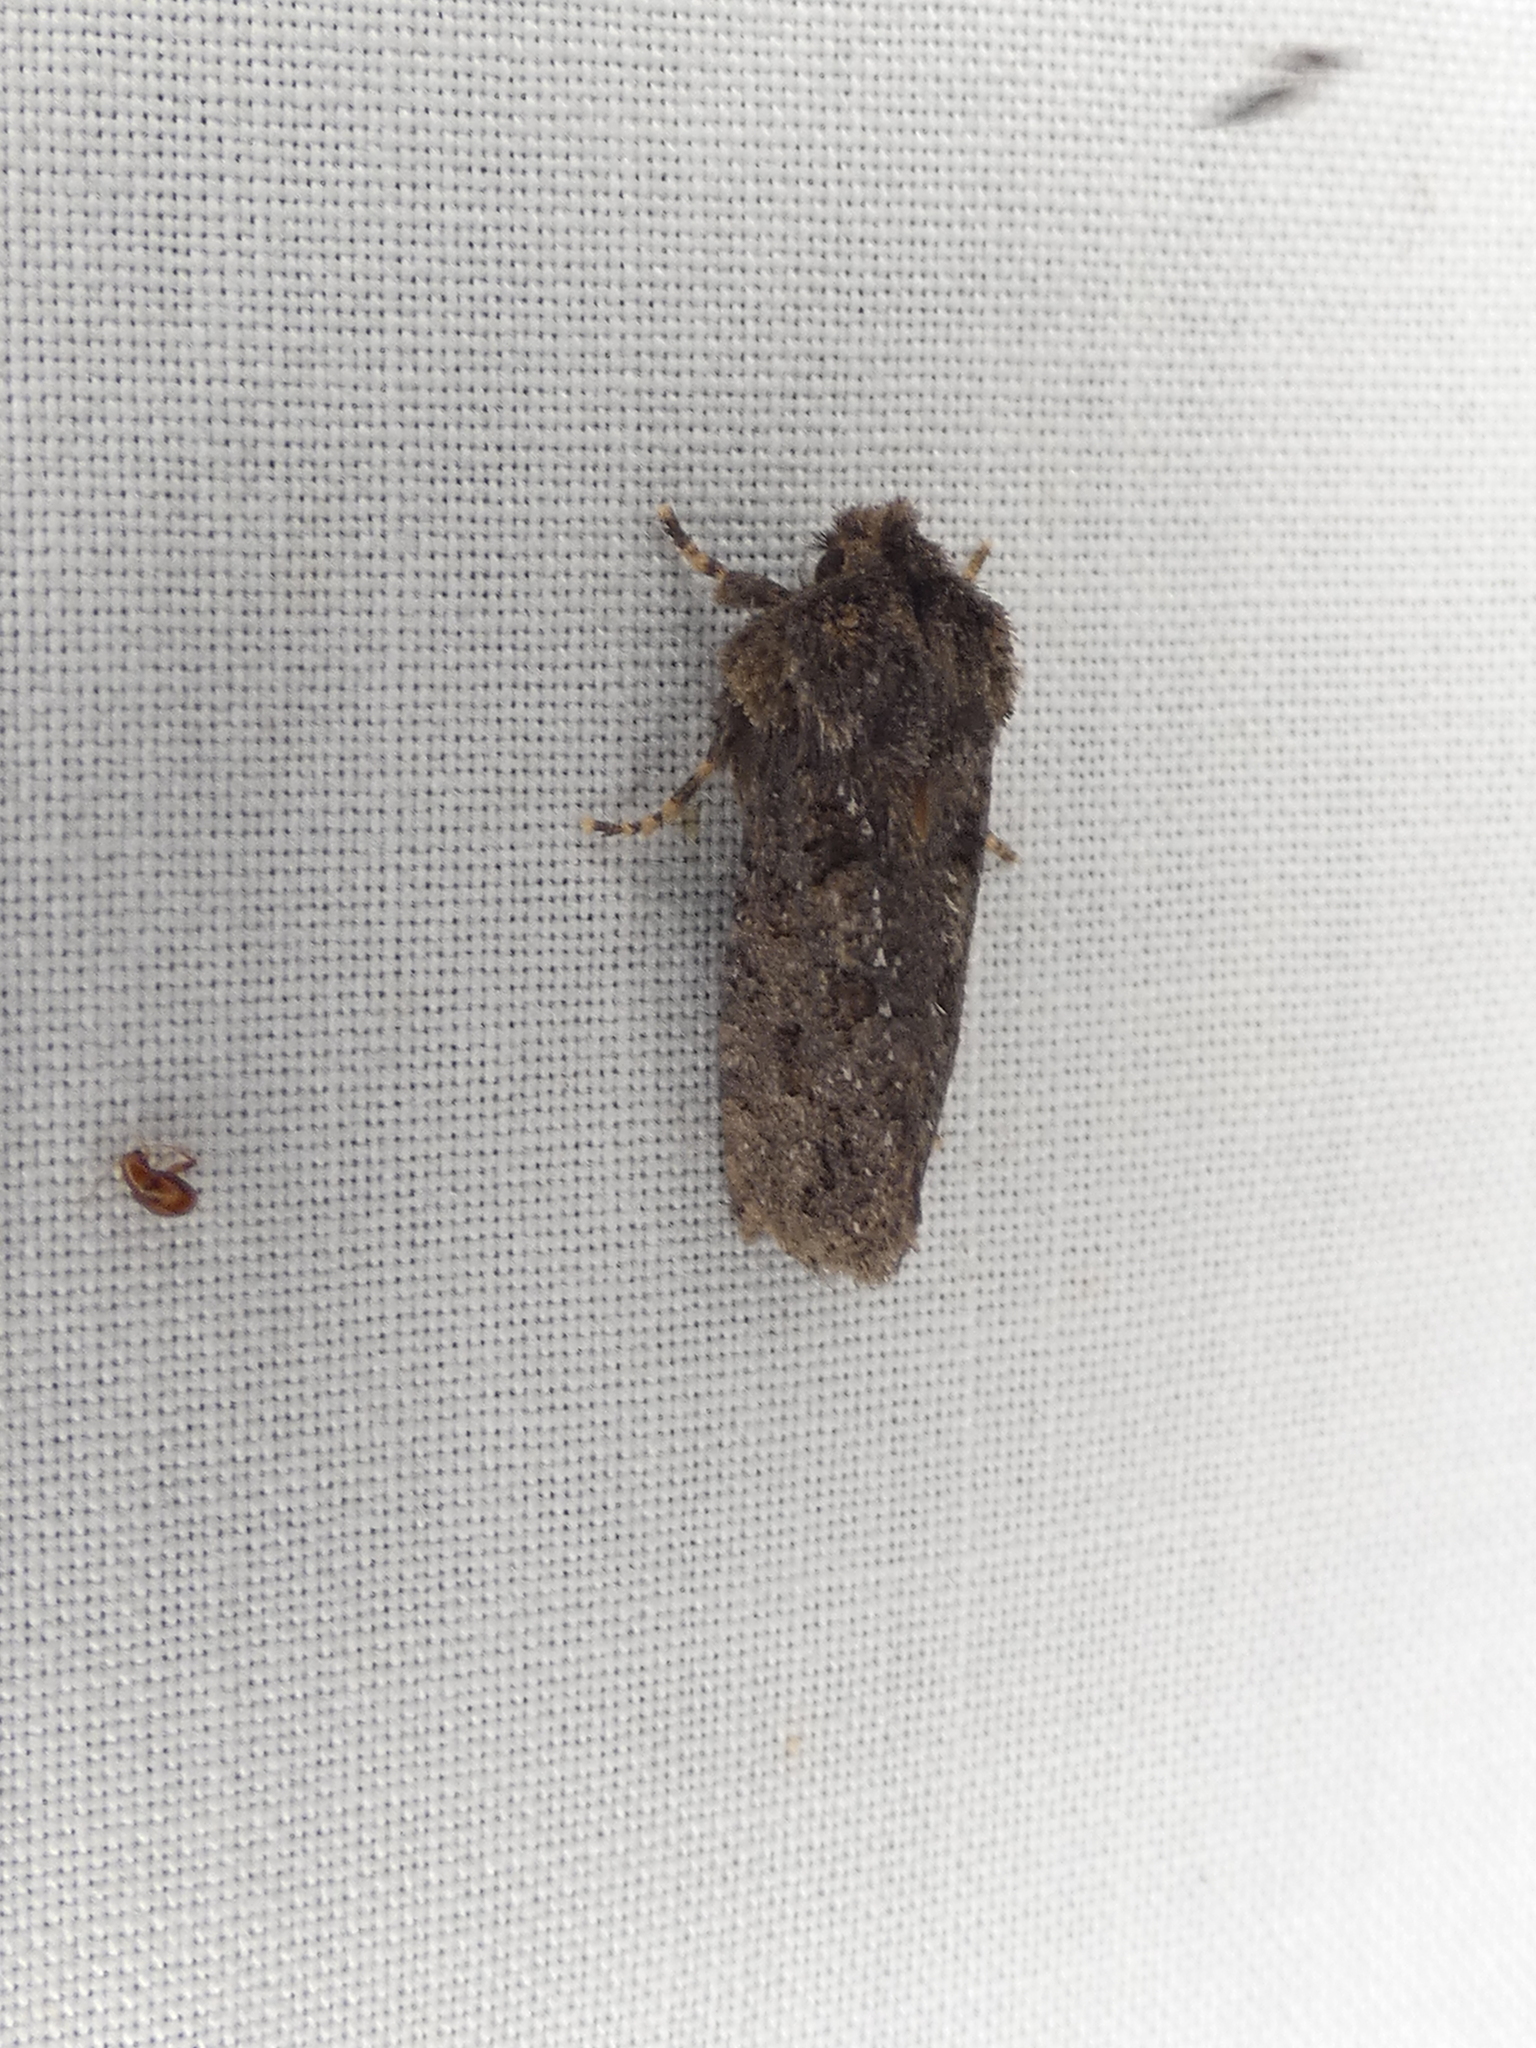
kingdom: Animalia
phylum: Arthropoda
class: Insecta
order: Lepidoptera
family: Tineidae
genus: Acrolophus
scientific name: Acrolophus arcanella
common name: Arcane grass tubeworm moth
